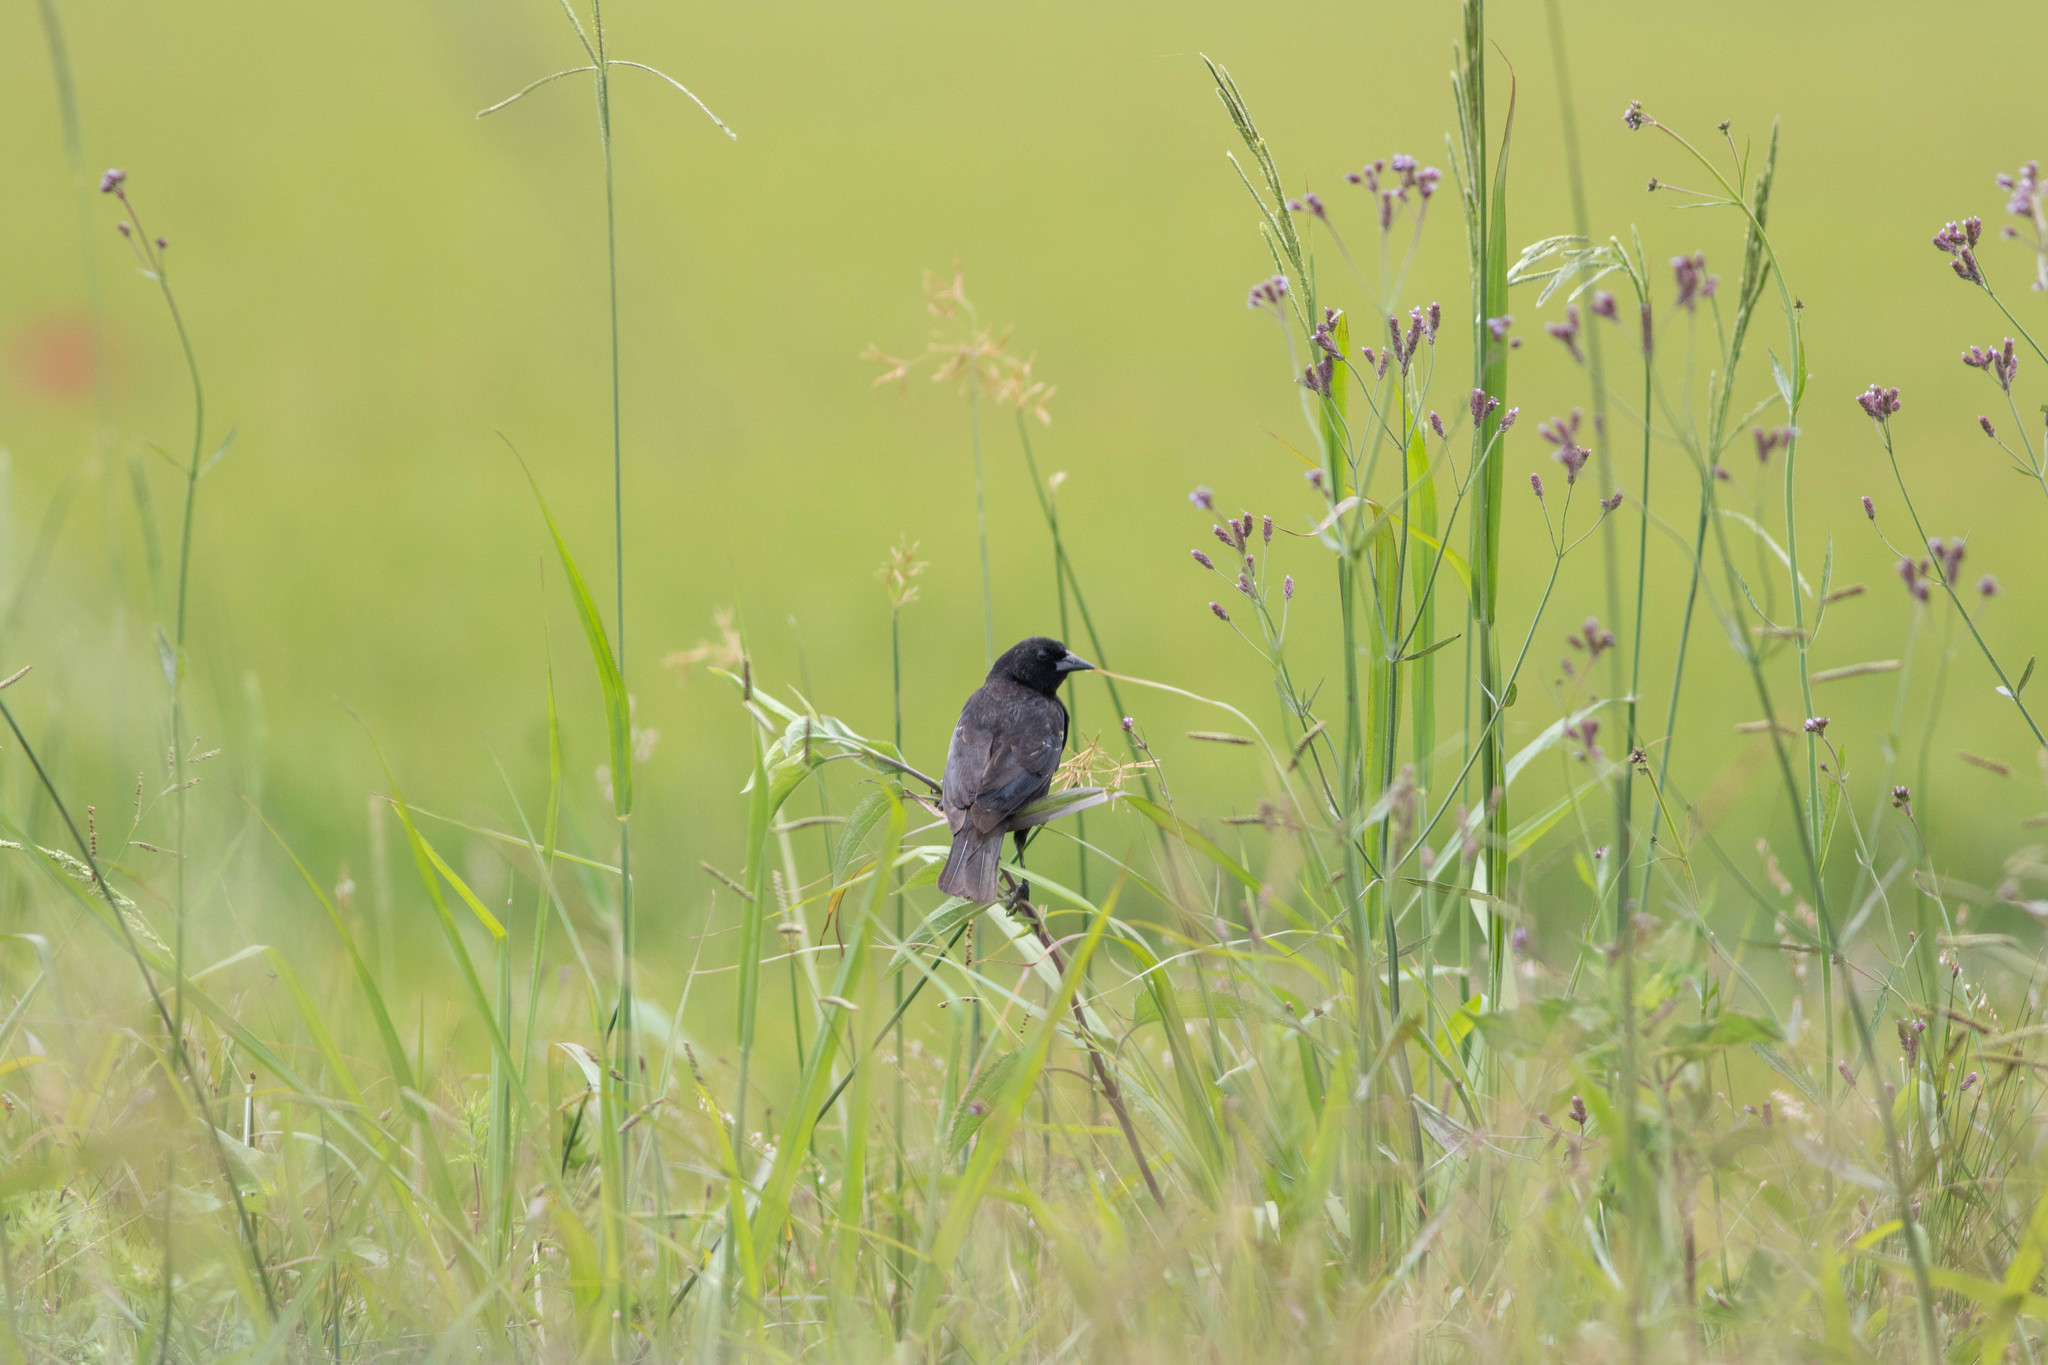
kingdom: Animalia
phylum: Chordata
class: Aves
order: Passeriformes
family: Icteridae
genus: Agelaius
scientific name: Agelaius phoeniceus
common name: Red-winged blackbird
